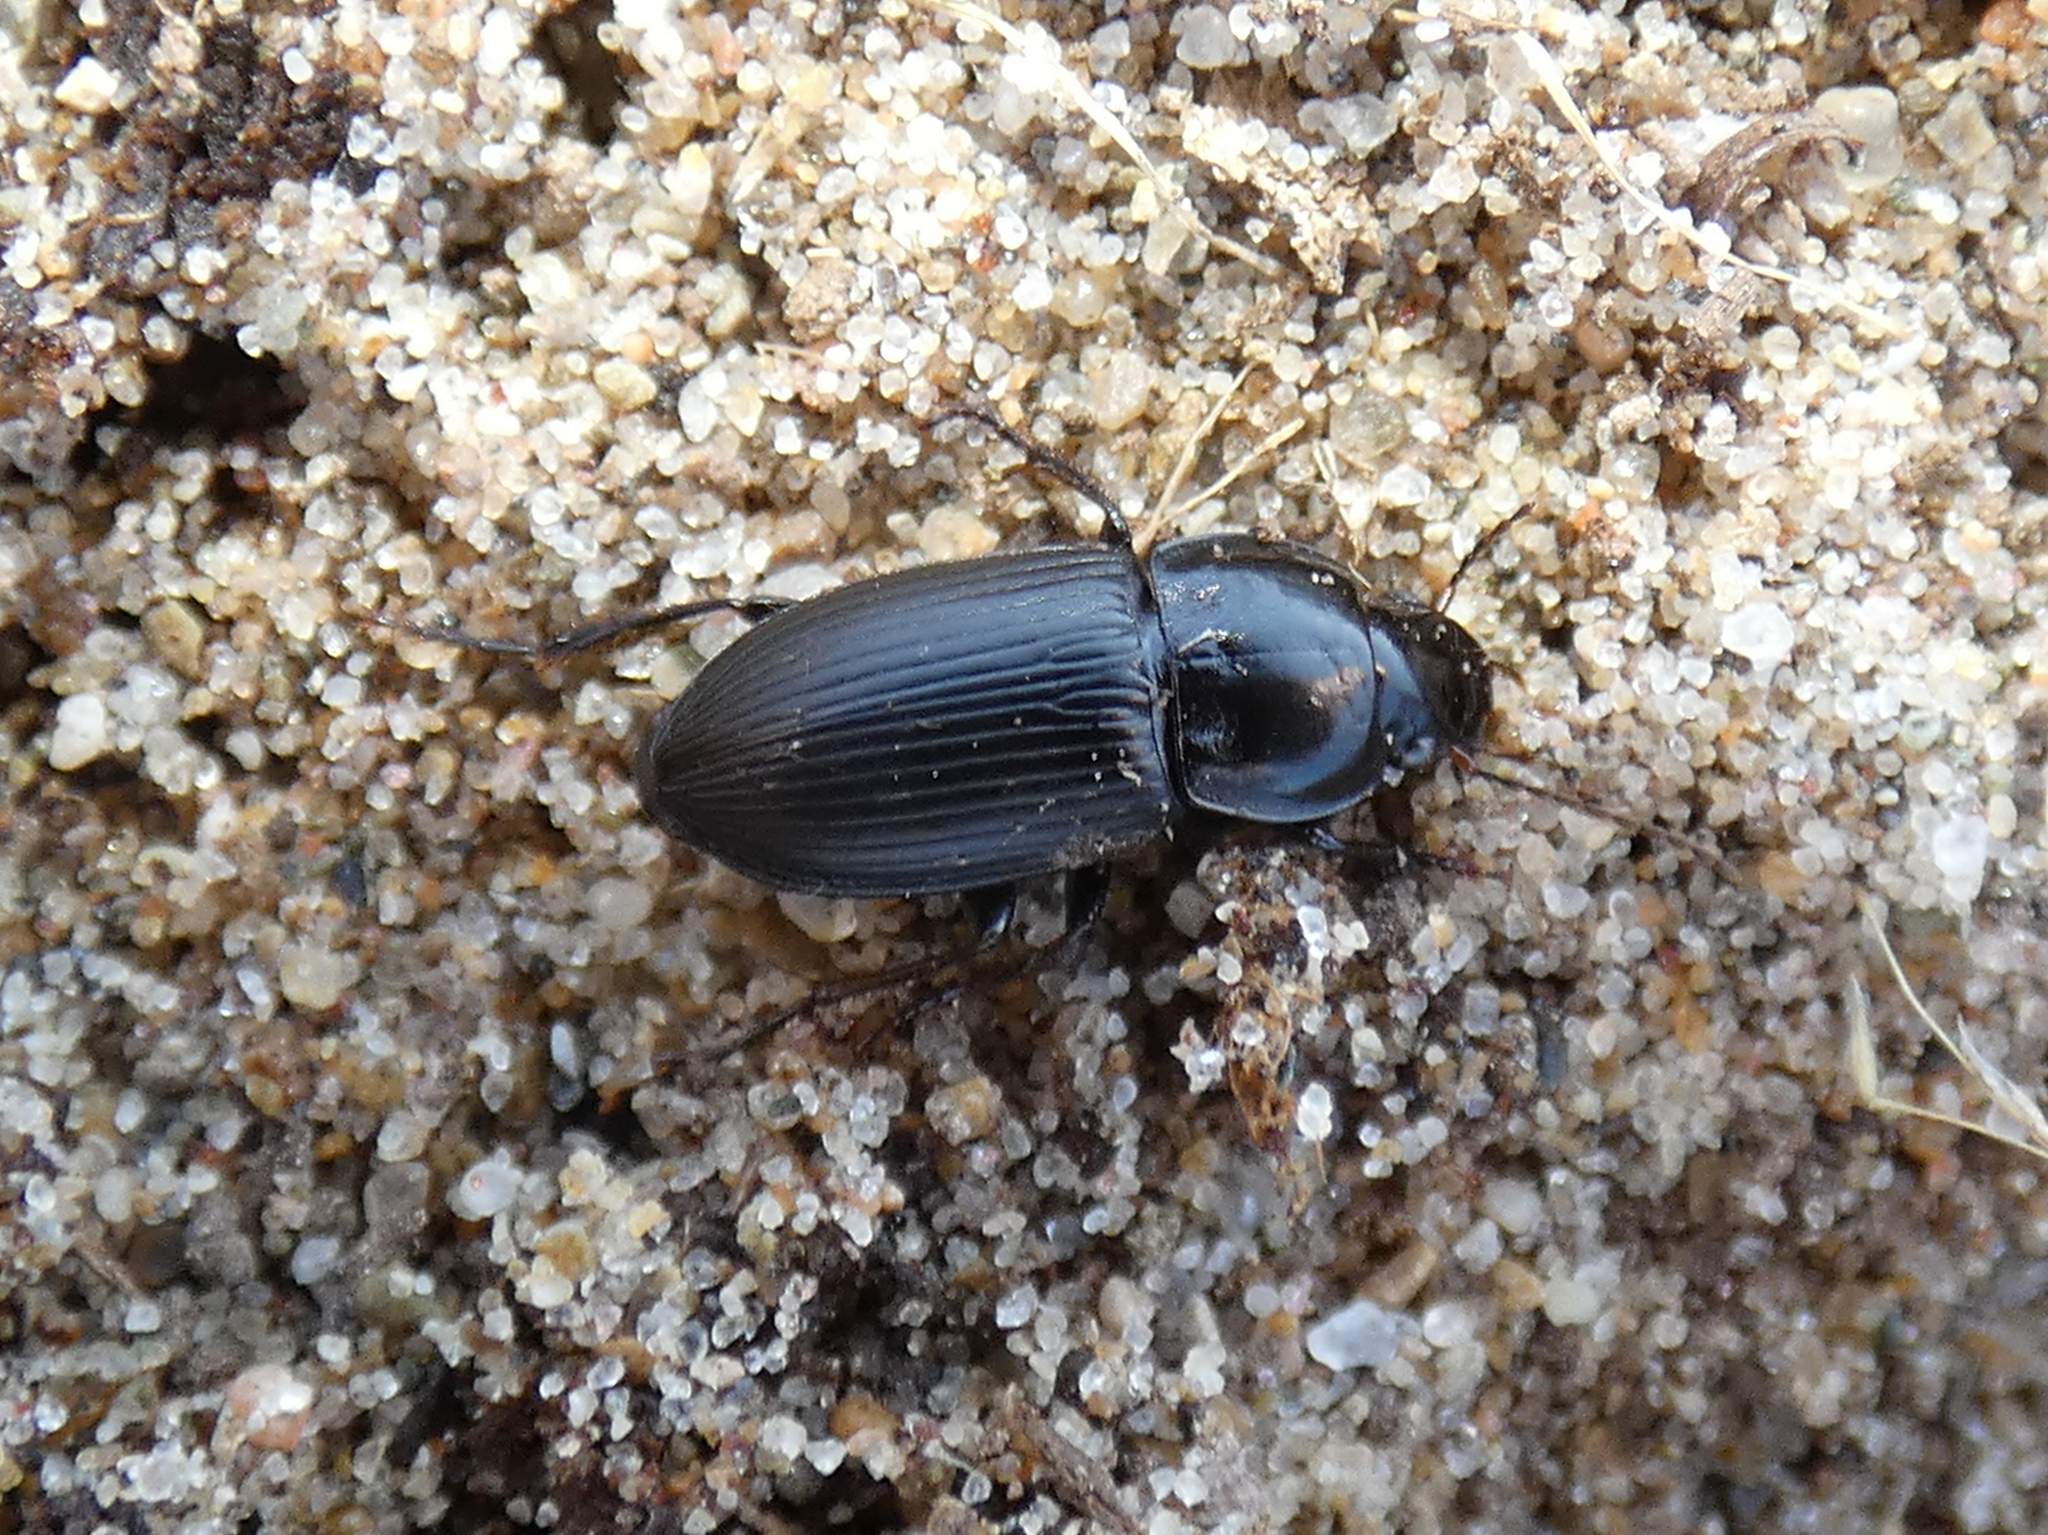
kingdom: Animalia
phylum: Arthropoda
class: Insecta
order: Coleoptera
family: Carabidae
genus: Anisodactylus
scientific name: Anisodactylus harrisii
